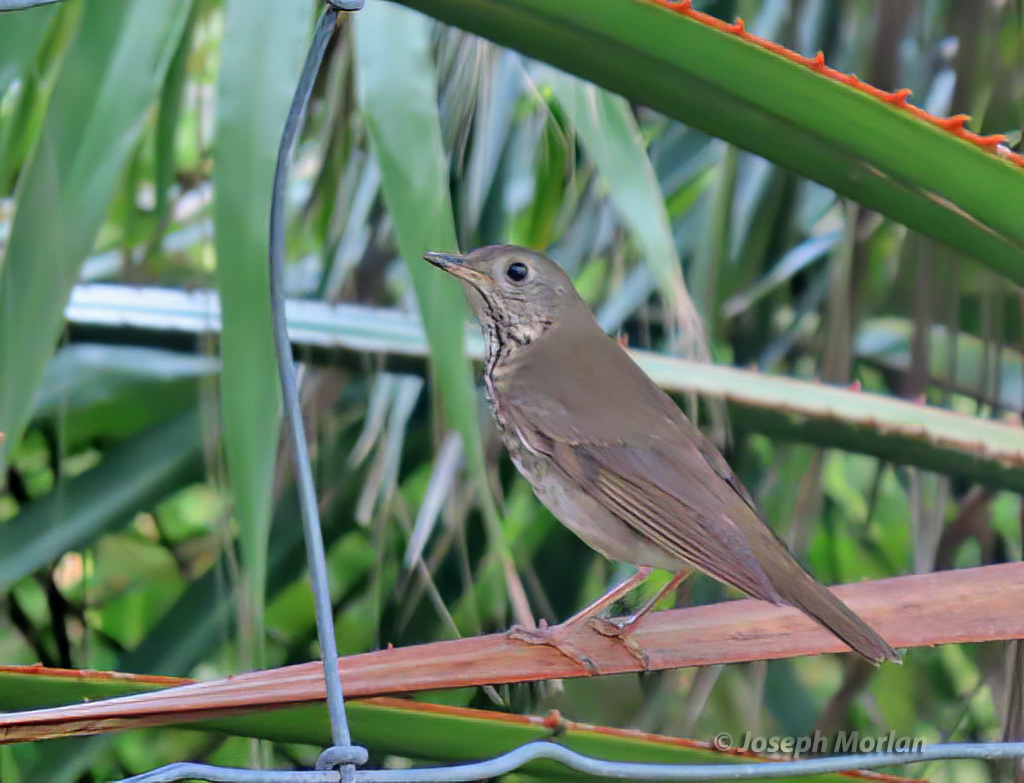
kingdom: Animalia
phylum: Chordata
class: Aves
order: Passeriformes
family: Turdidae
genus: Catharus
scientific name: Catharus minimus
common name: Grey-cheeked thrush
